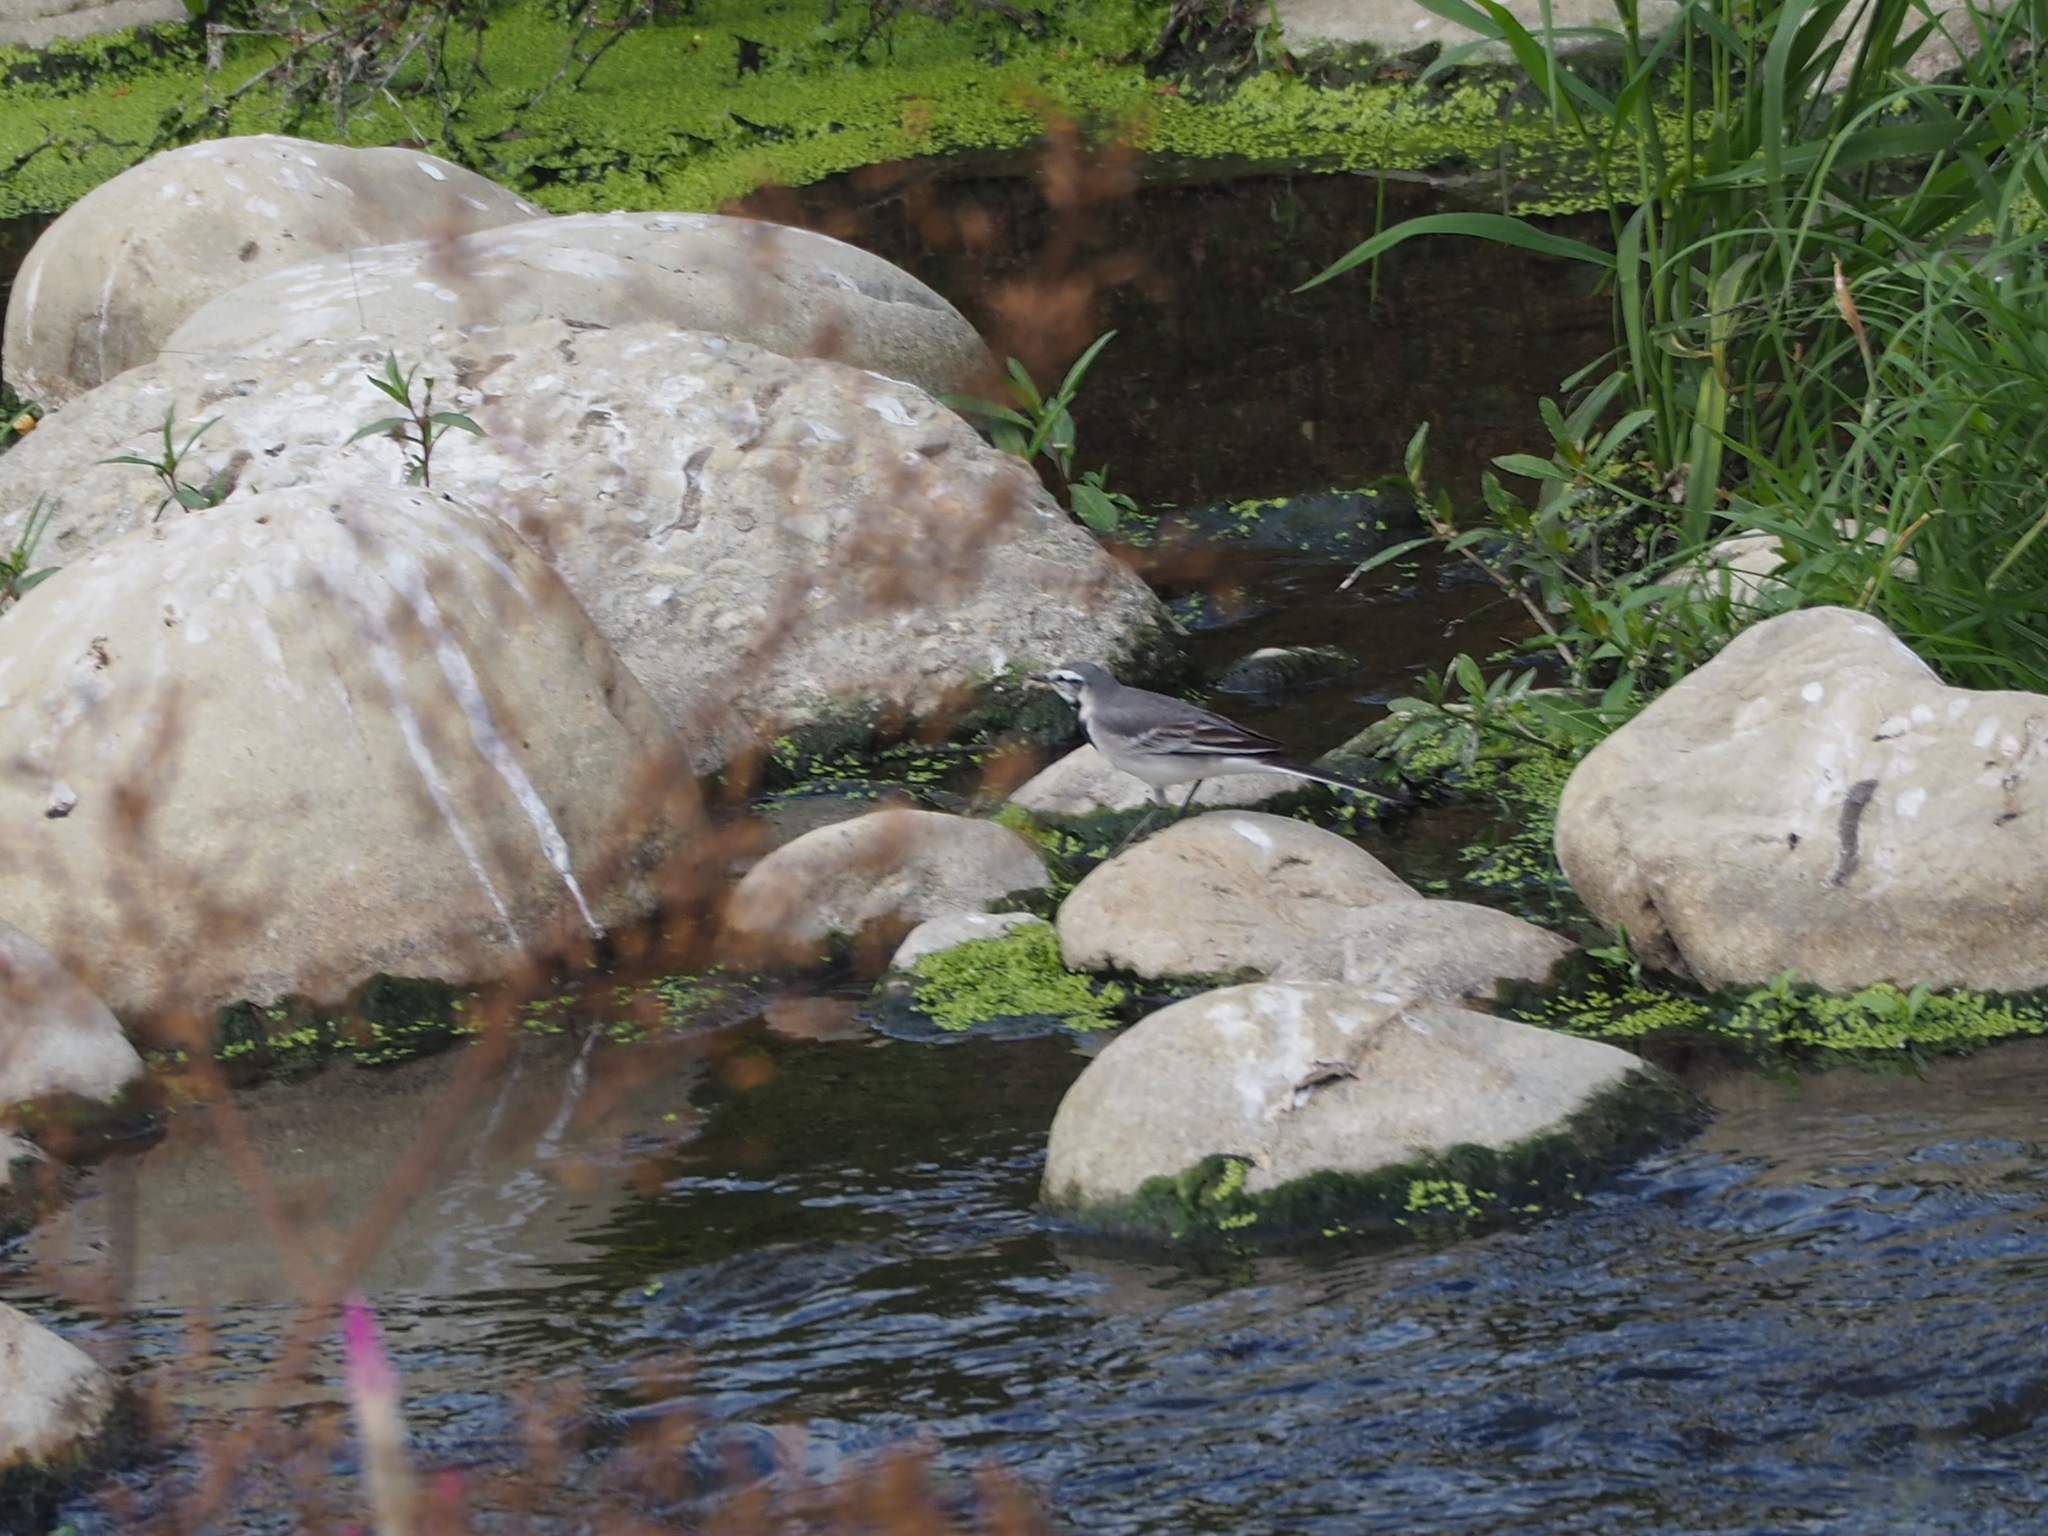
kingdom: Animalia
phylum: Chordata
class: Aves
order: Passeriformes
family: Motacillidae
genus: Motacilla
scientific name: Motacilla alba
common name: White wagtail
